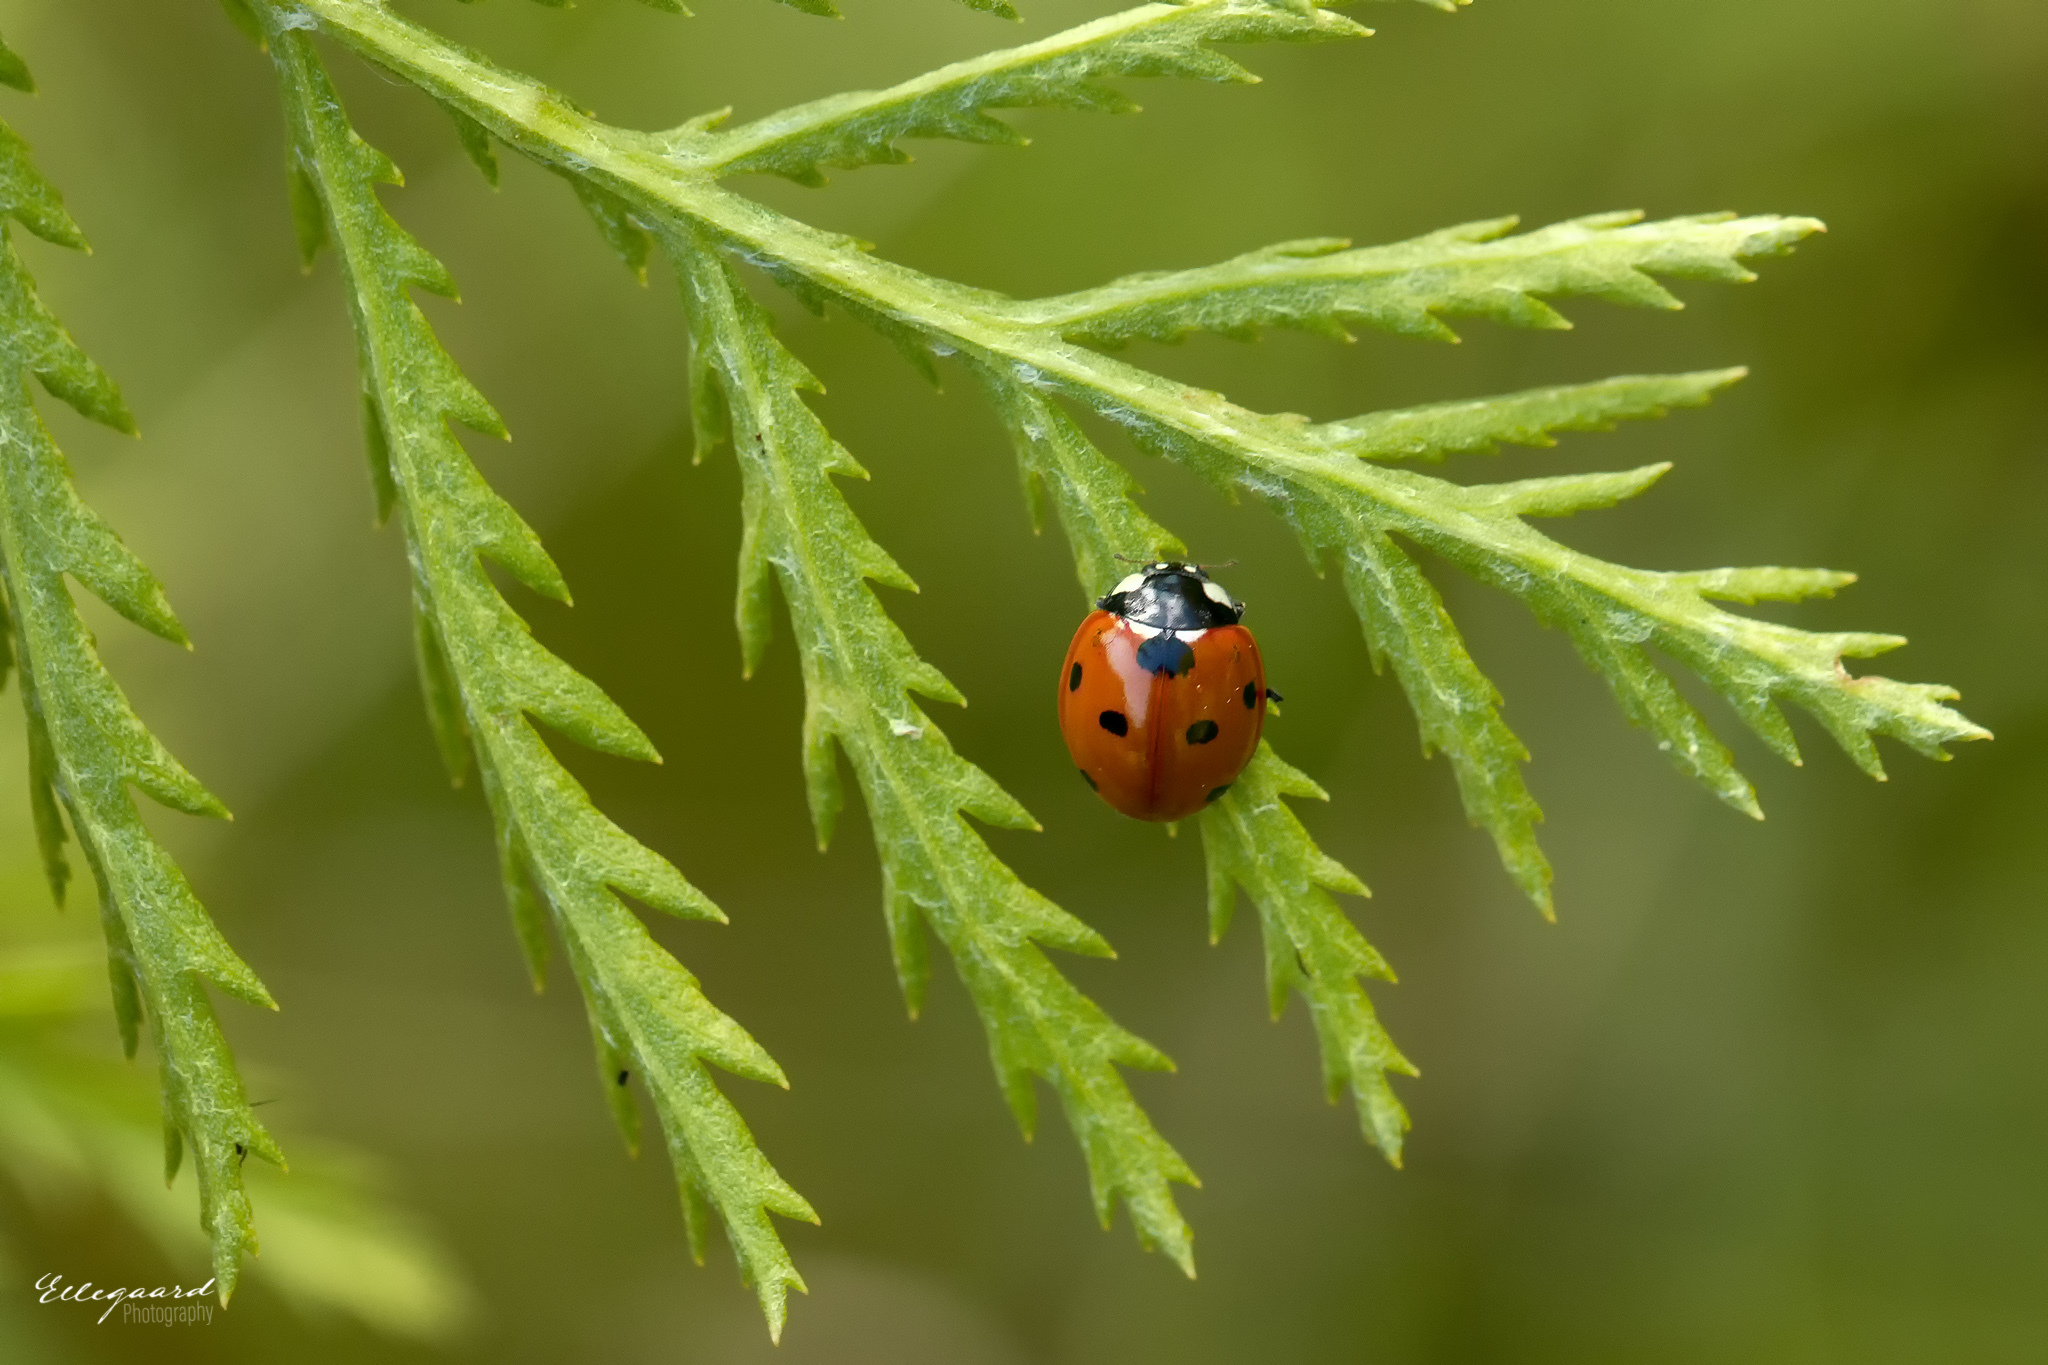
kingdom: Animalia
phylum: Arthropoda
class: Insecta
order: Coleoptera
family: Coccinellidae
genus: Coccinella
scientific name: Coccinella septempunctata
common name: Sevenspotted lady beetle
